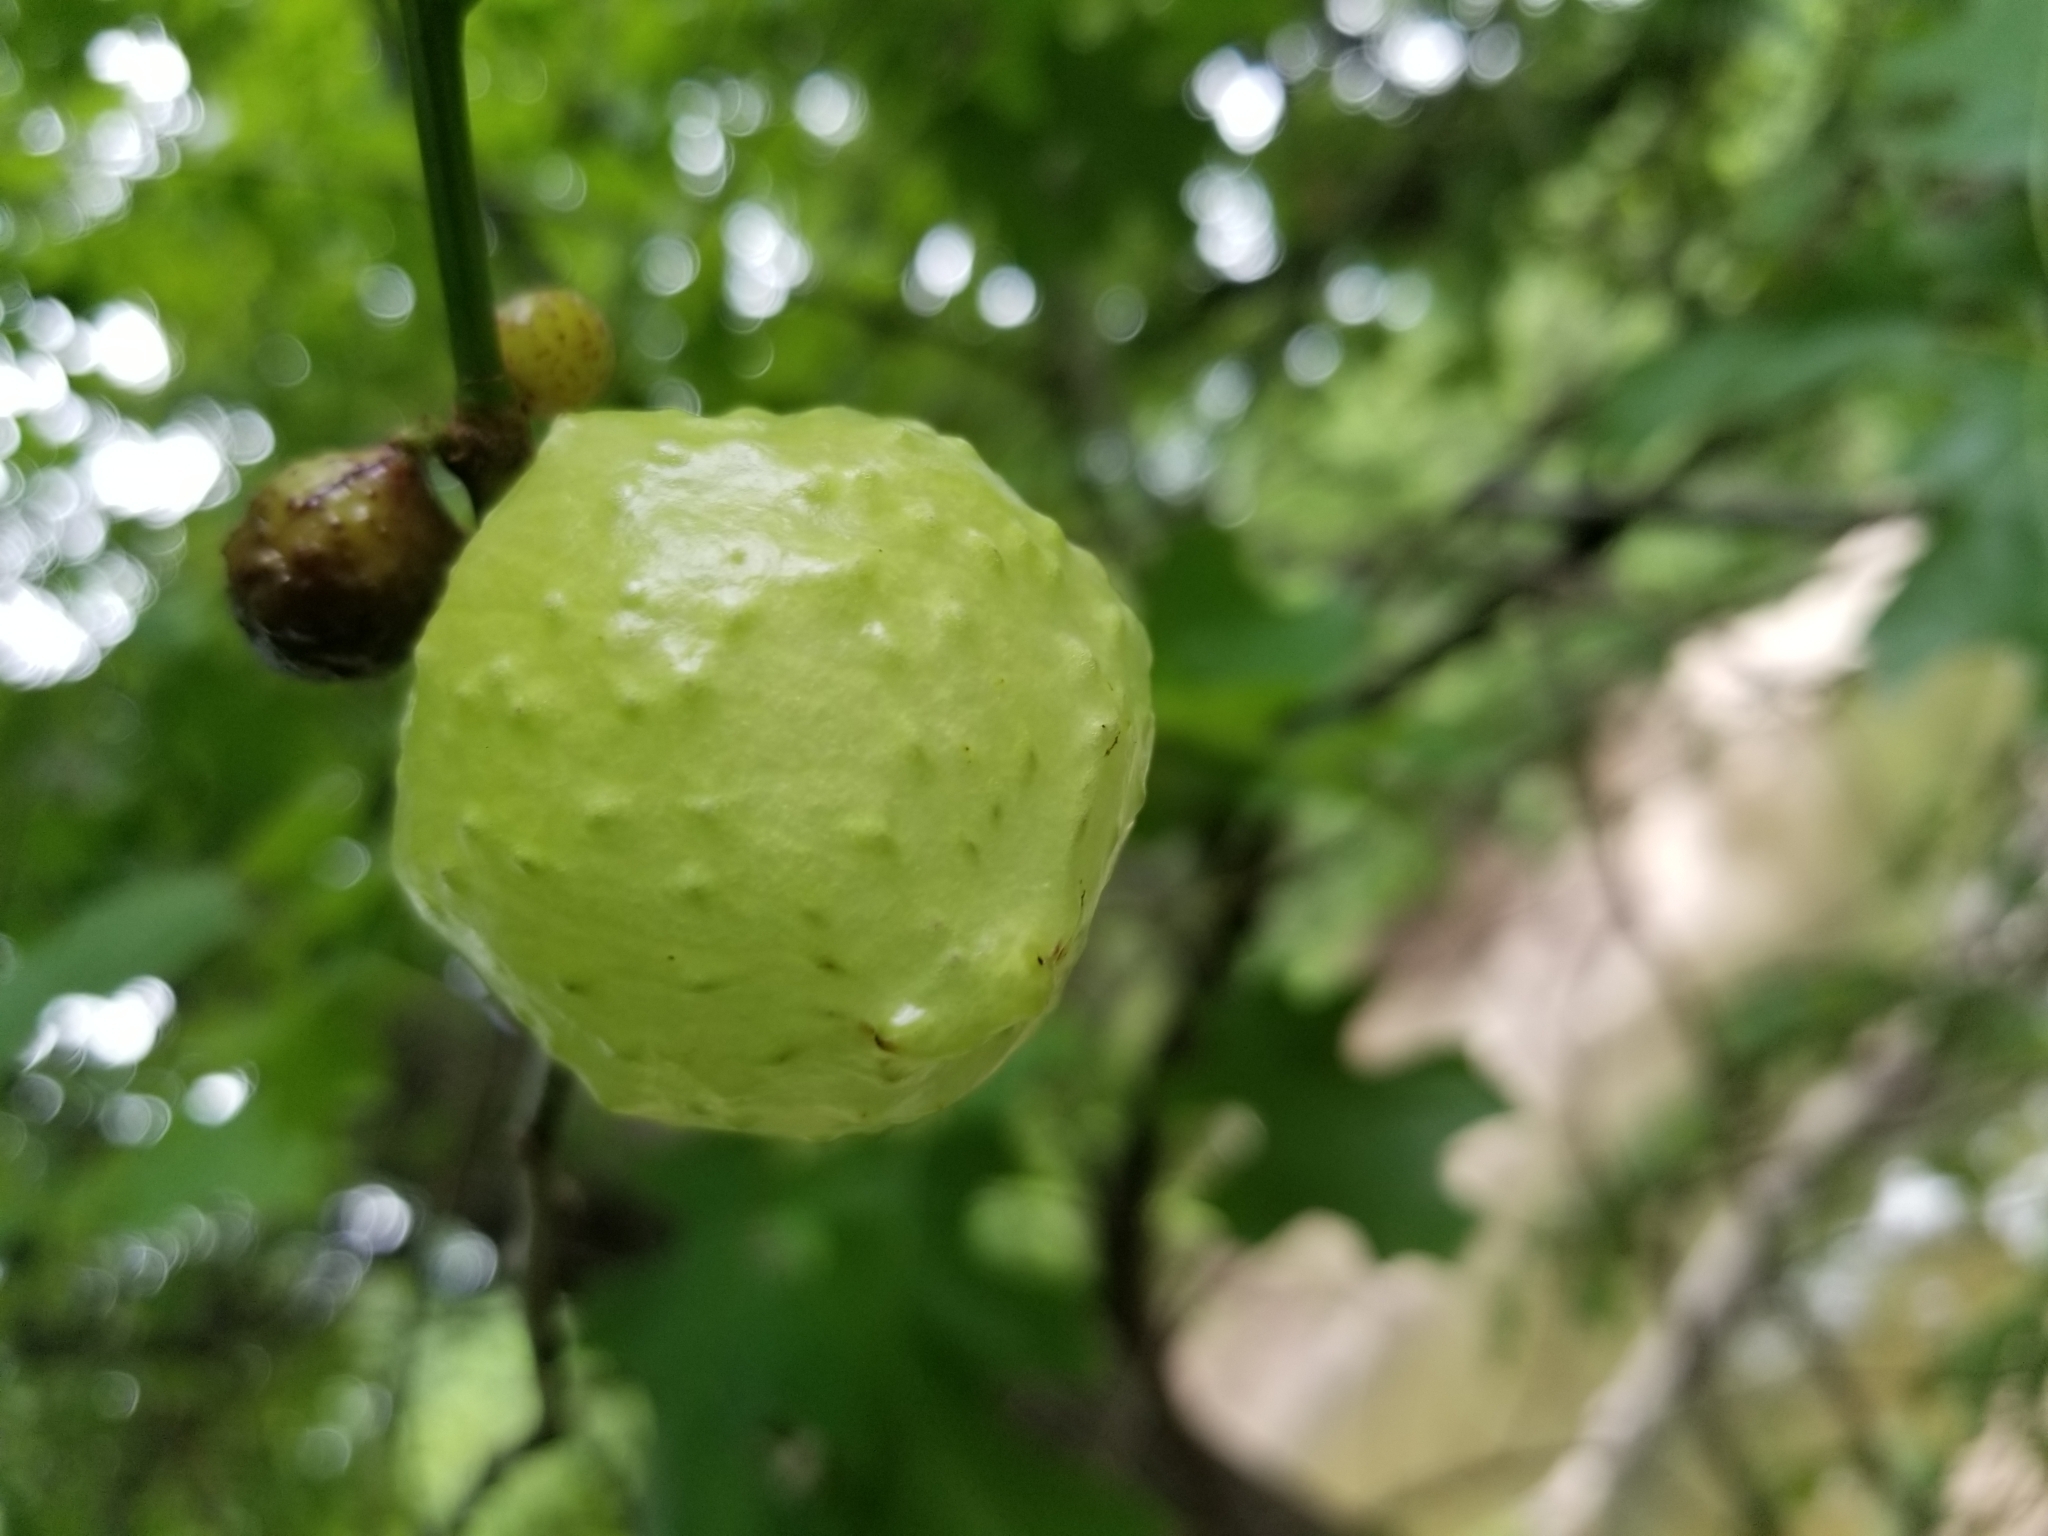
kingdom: Animalia
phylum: Arthropoda
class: Insecta
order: Hymenoptera
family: Cynipidae
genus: Amphibolips
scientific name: Amphibolips
